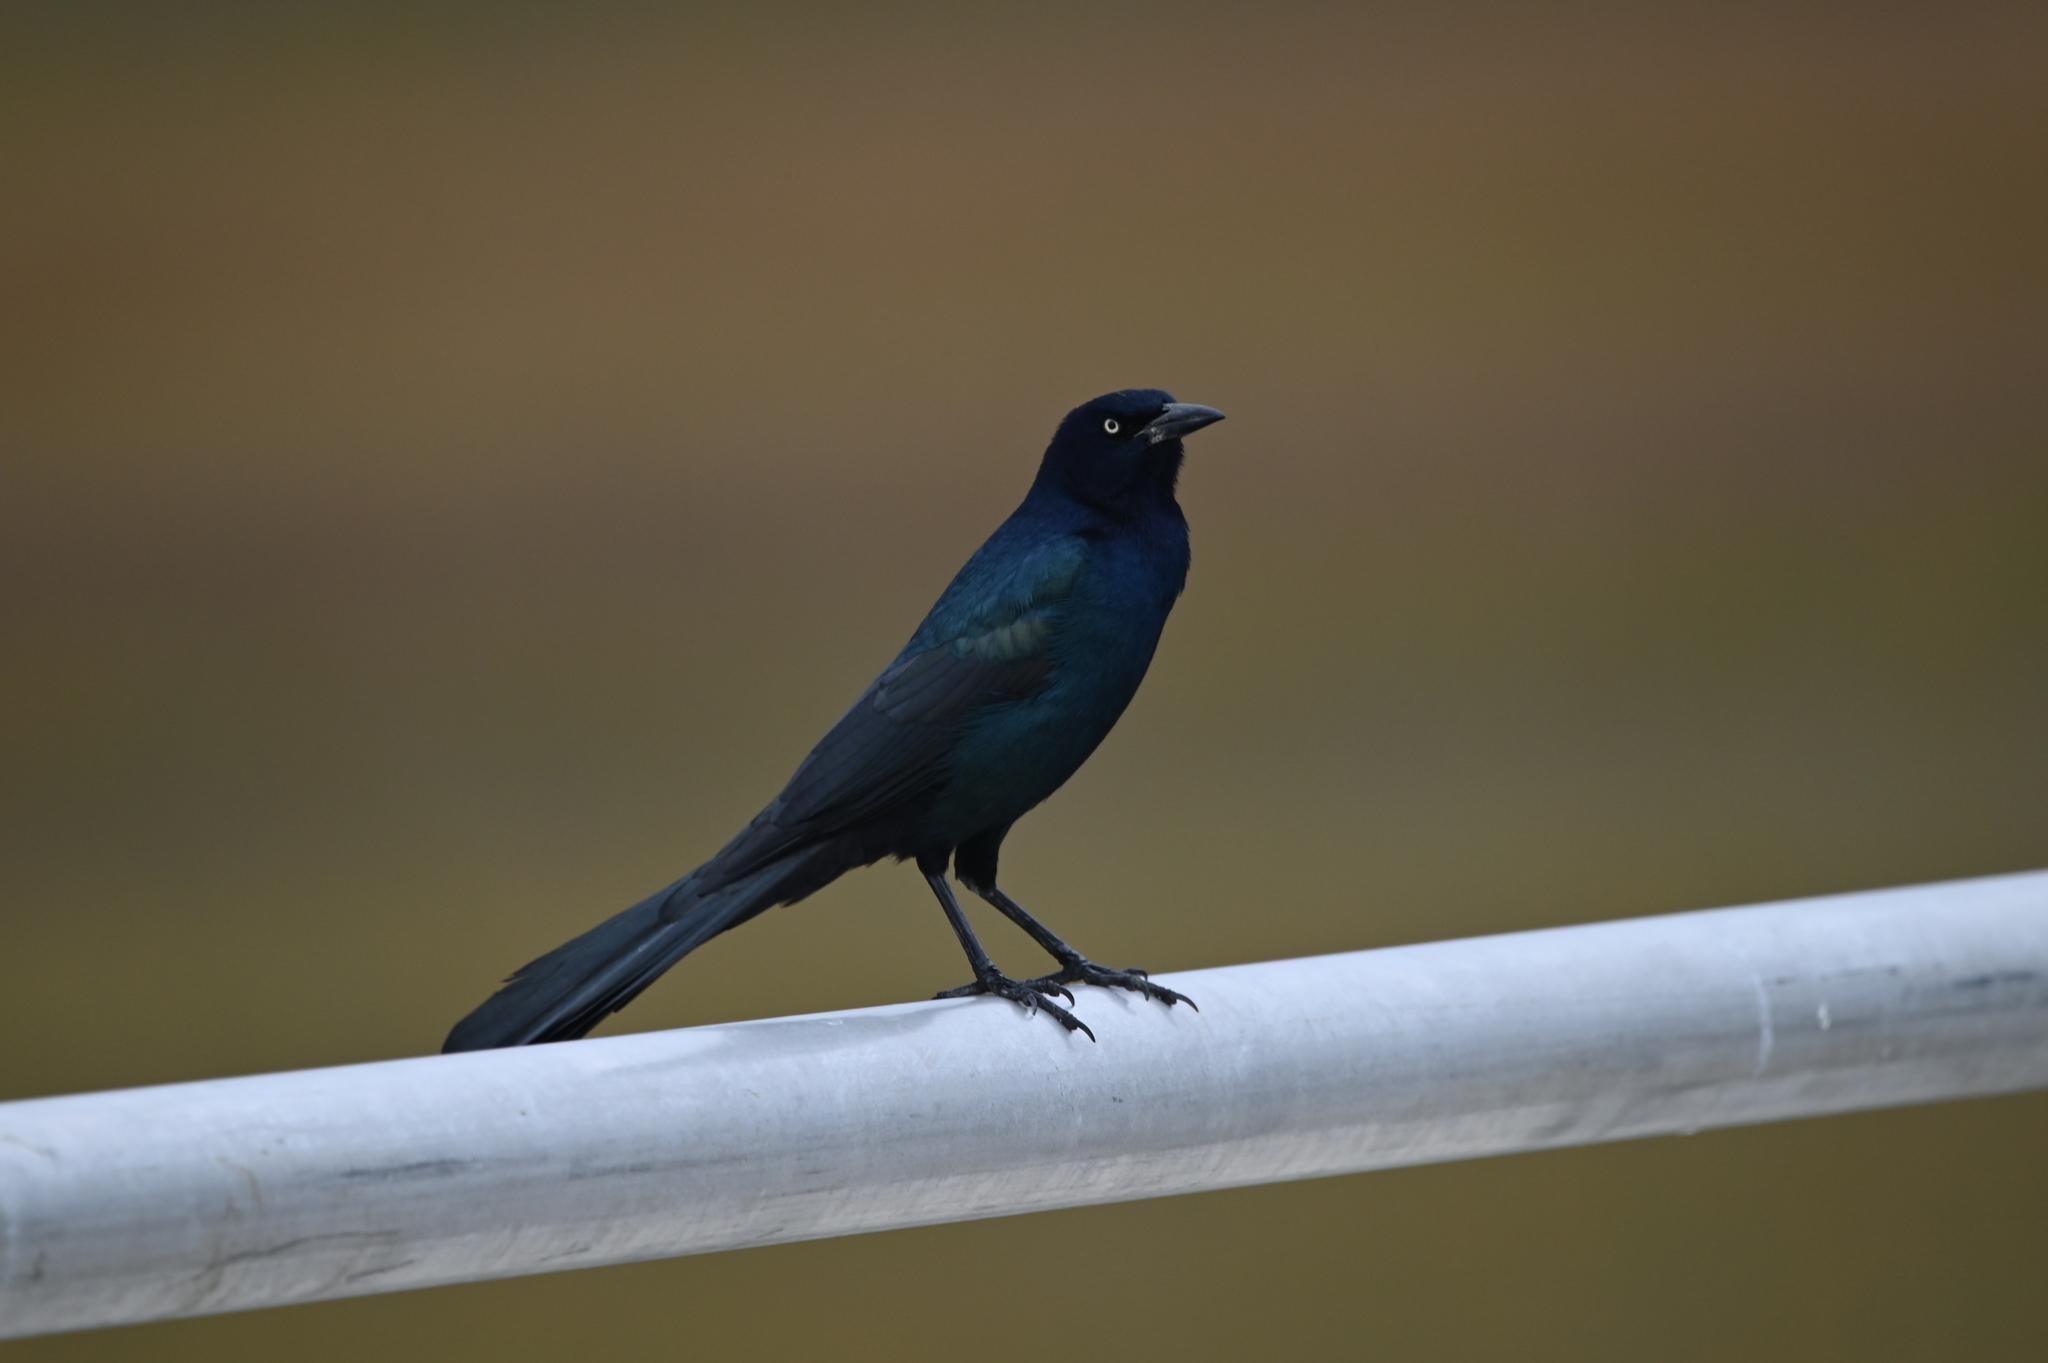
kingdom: Animalia
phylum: Chordata
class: Aves
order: Passeriformes
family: Icteridae
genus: Quiscalus
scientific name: Quiscalus major
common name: Boat-tailed grackle
